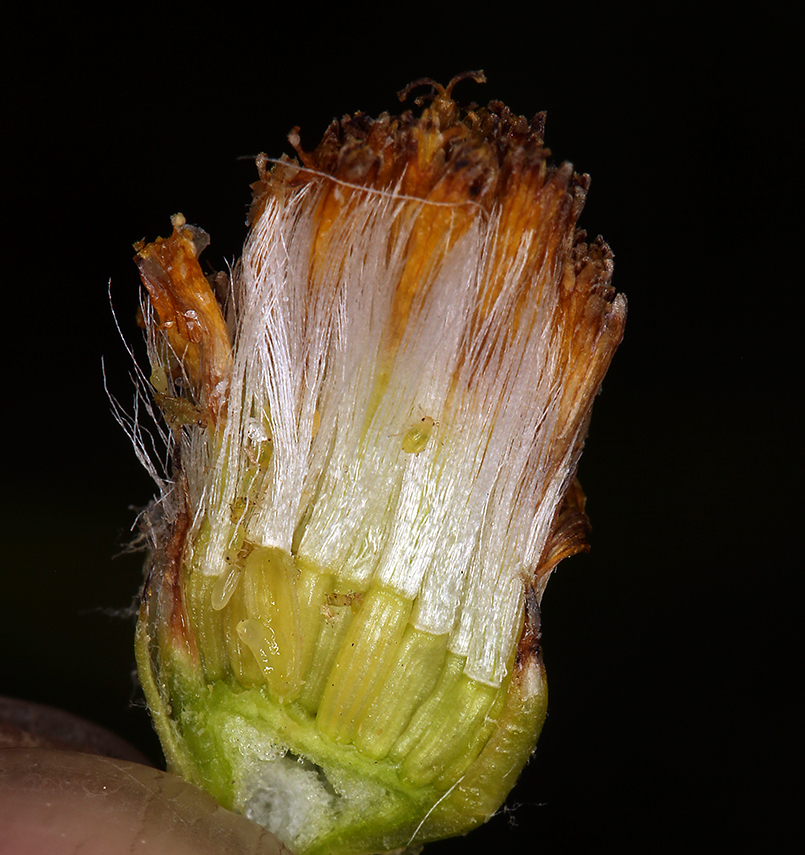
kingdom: Plantae
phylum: Tracheophyta
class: Magnoliopsida
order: Asterales
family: Asteraceae
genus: Senecio
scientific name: Senecio scorzonella
